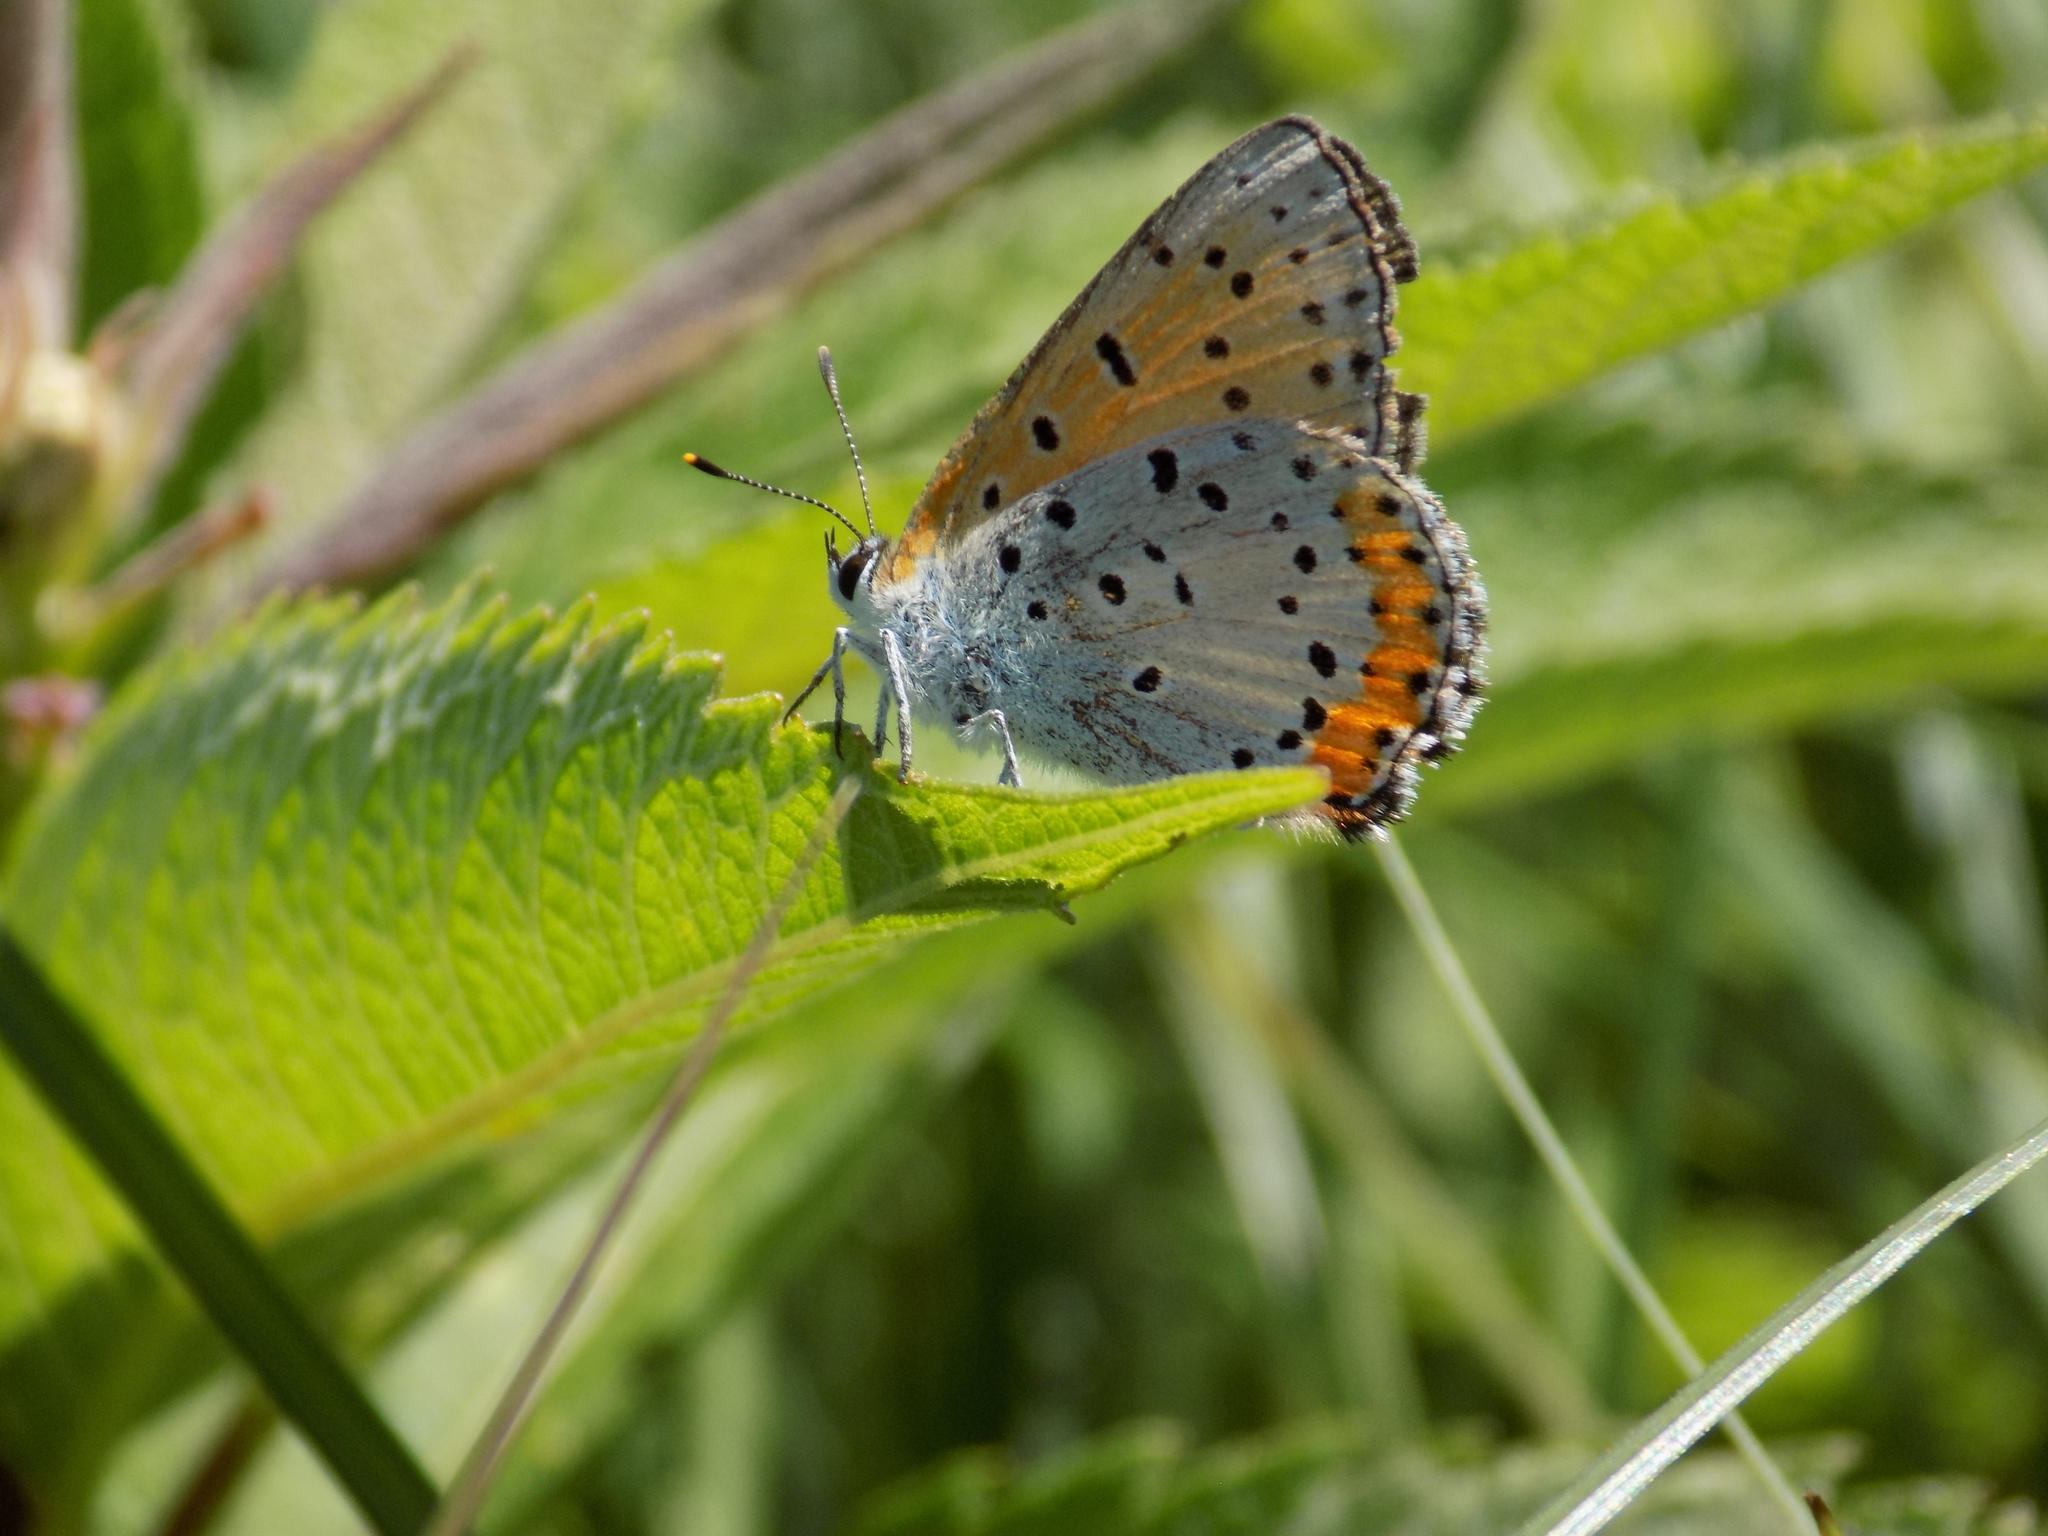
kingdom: Animalia
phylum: Arthropoda
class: Insecta
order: Lepidoptera
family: Lycaenidae
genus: Tharsalea
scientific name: Tharsalea hyllus
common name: Bronze copper
